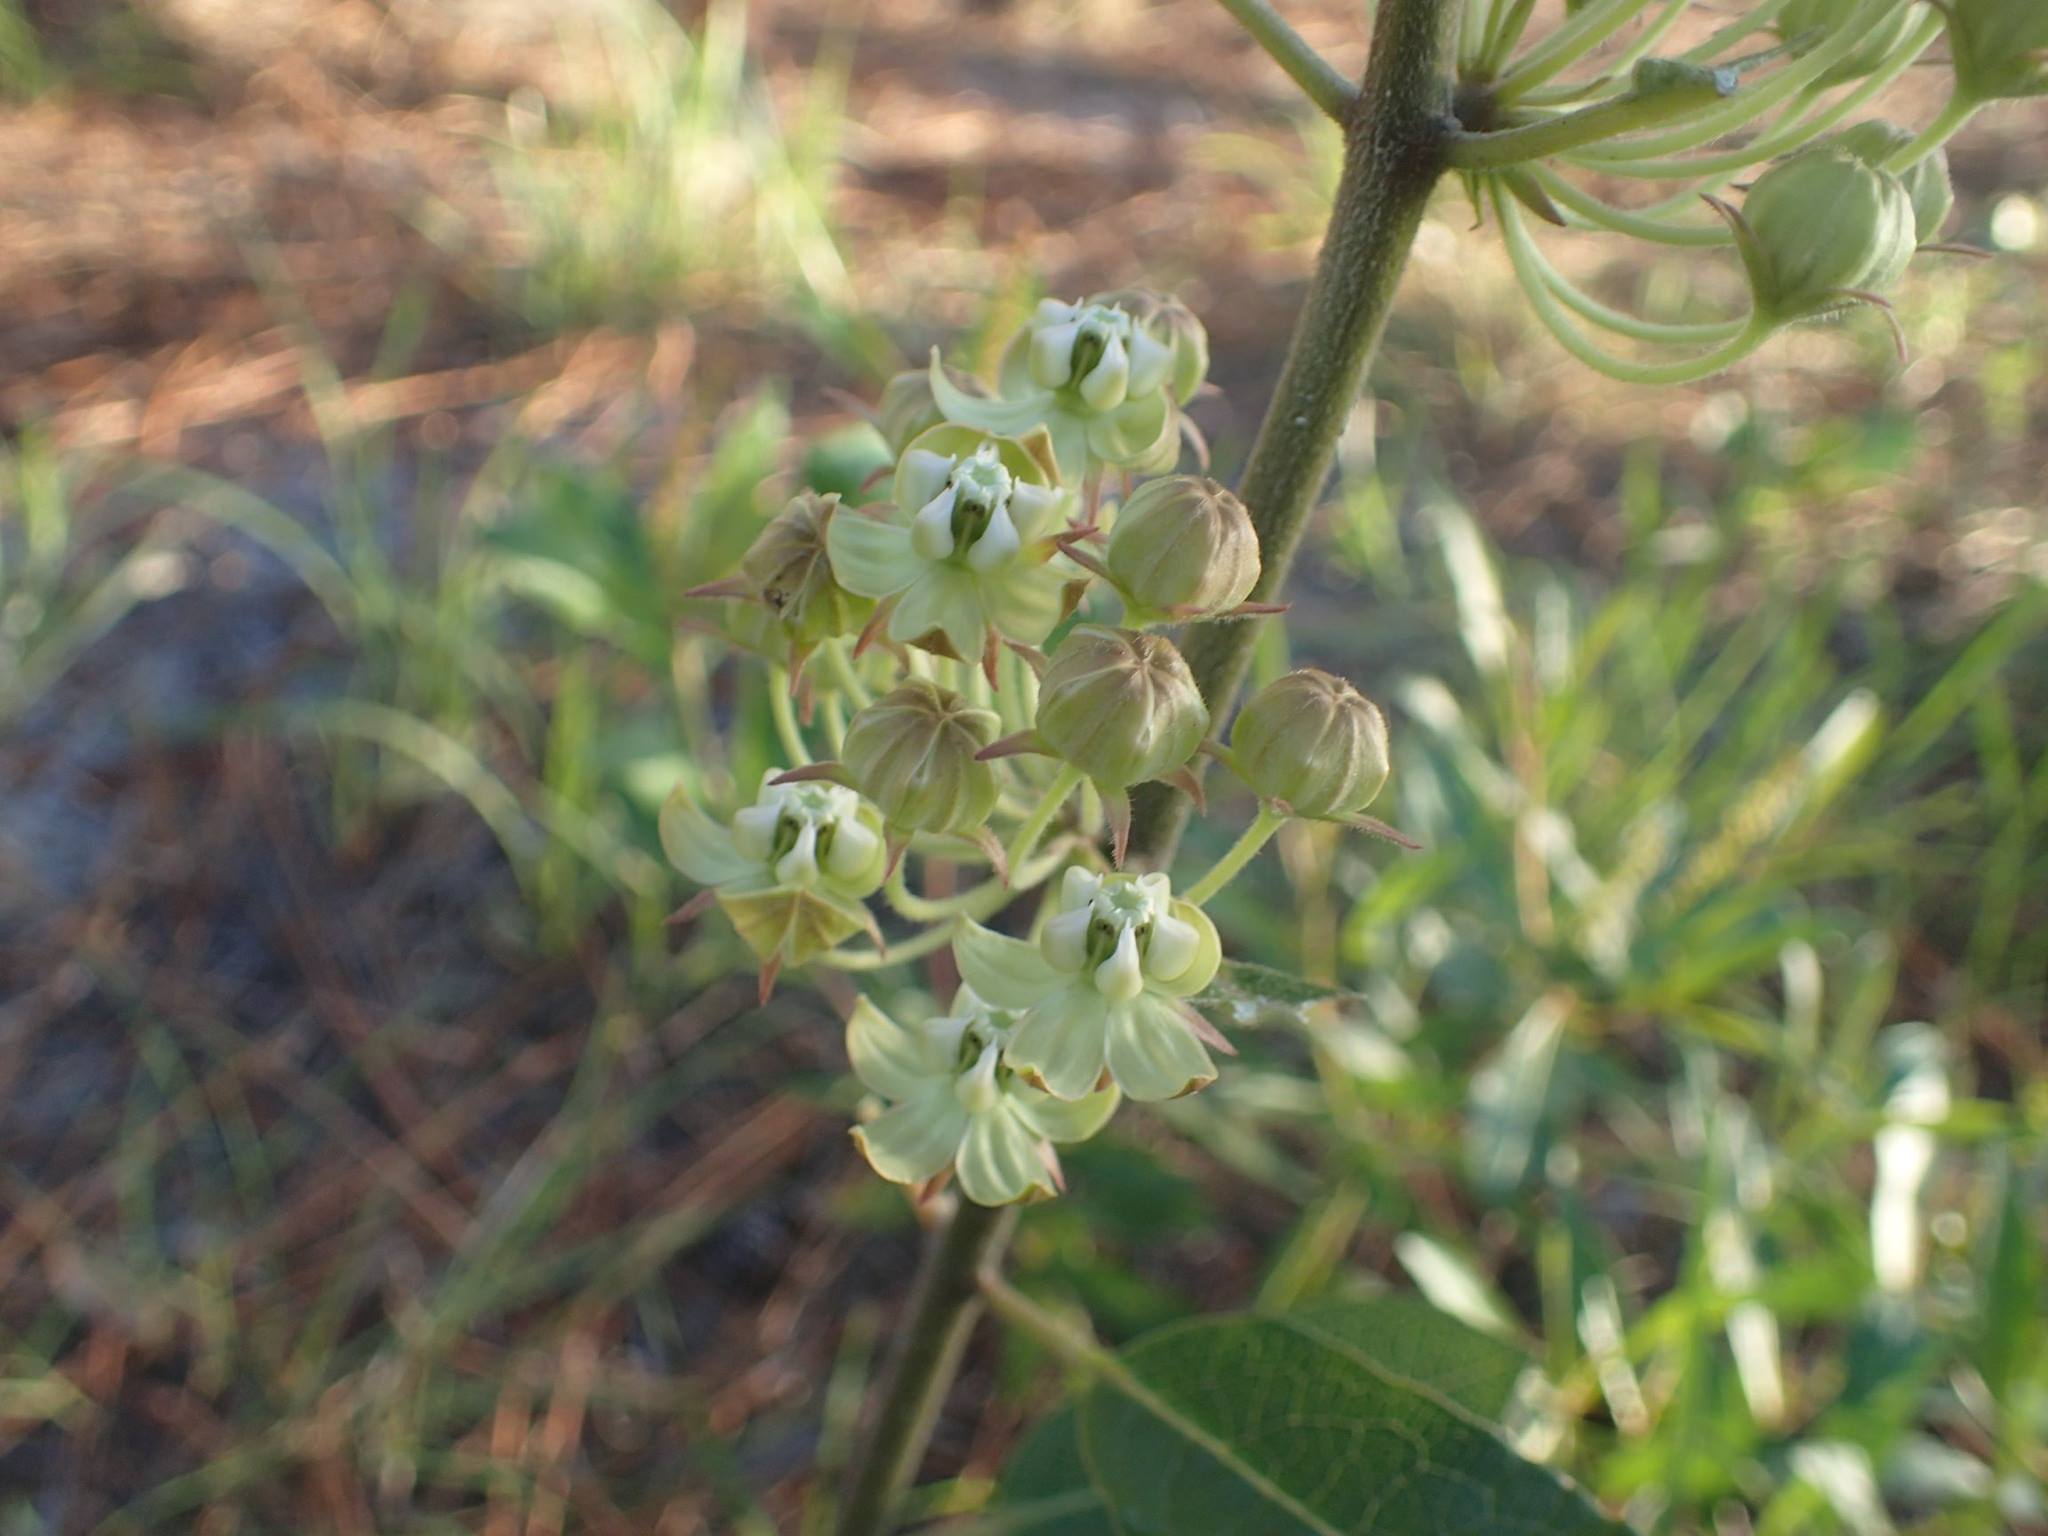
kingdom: Plantae
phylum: Tracheophyta
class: Magnoliopsida
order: Gentianales
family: Apocynaceae
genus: Asclepias
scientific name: Asclepias tomentosa
